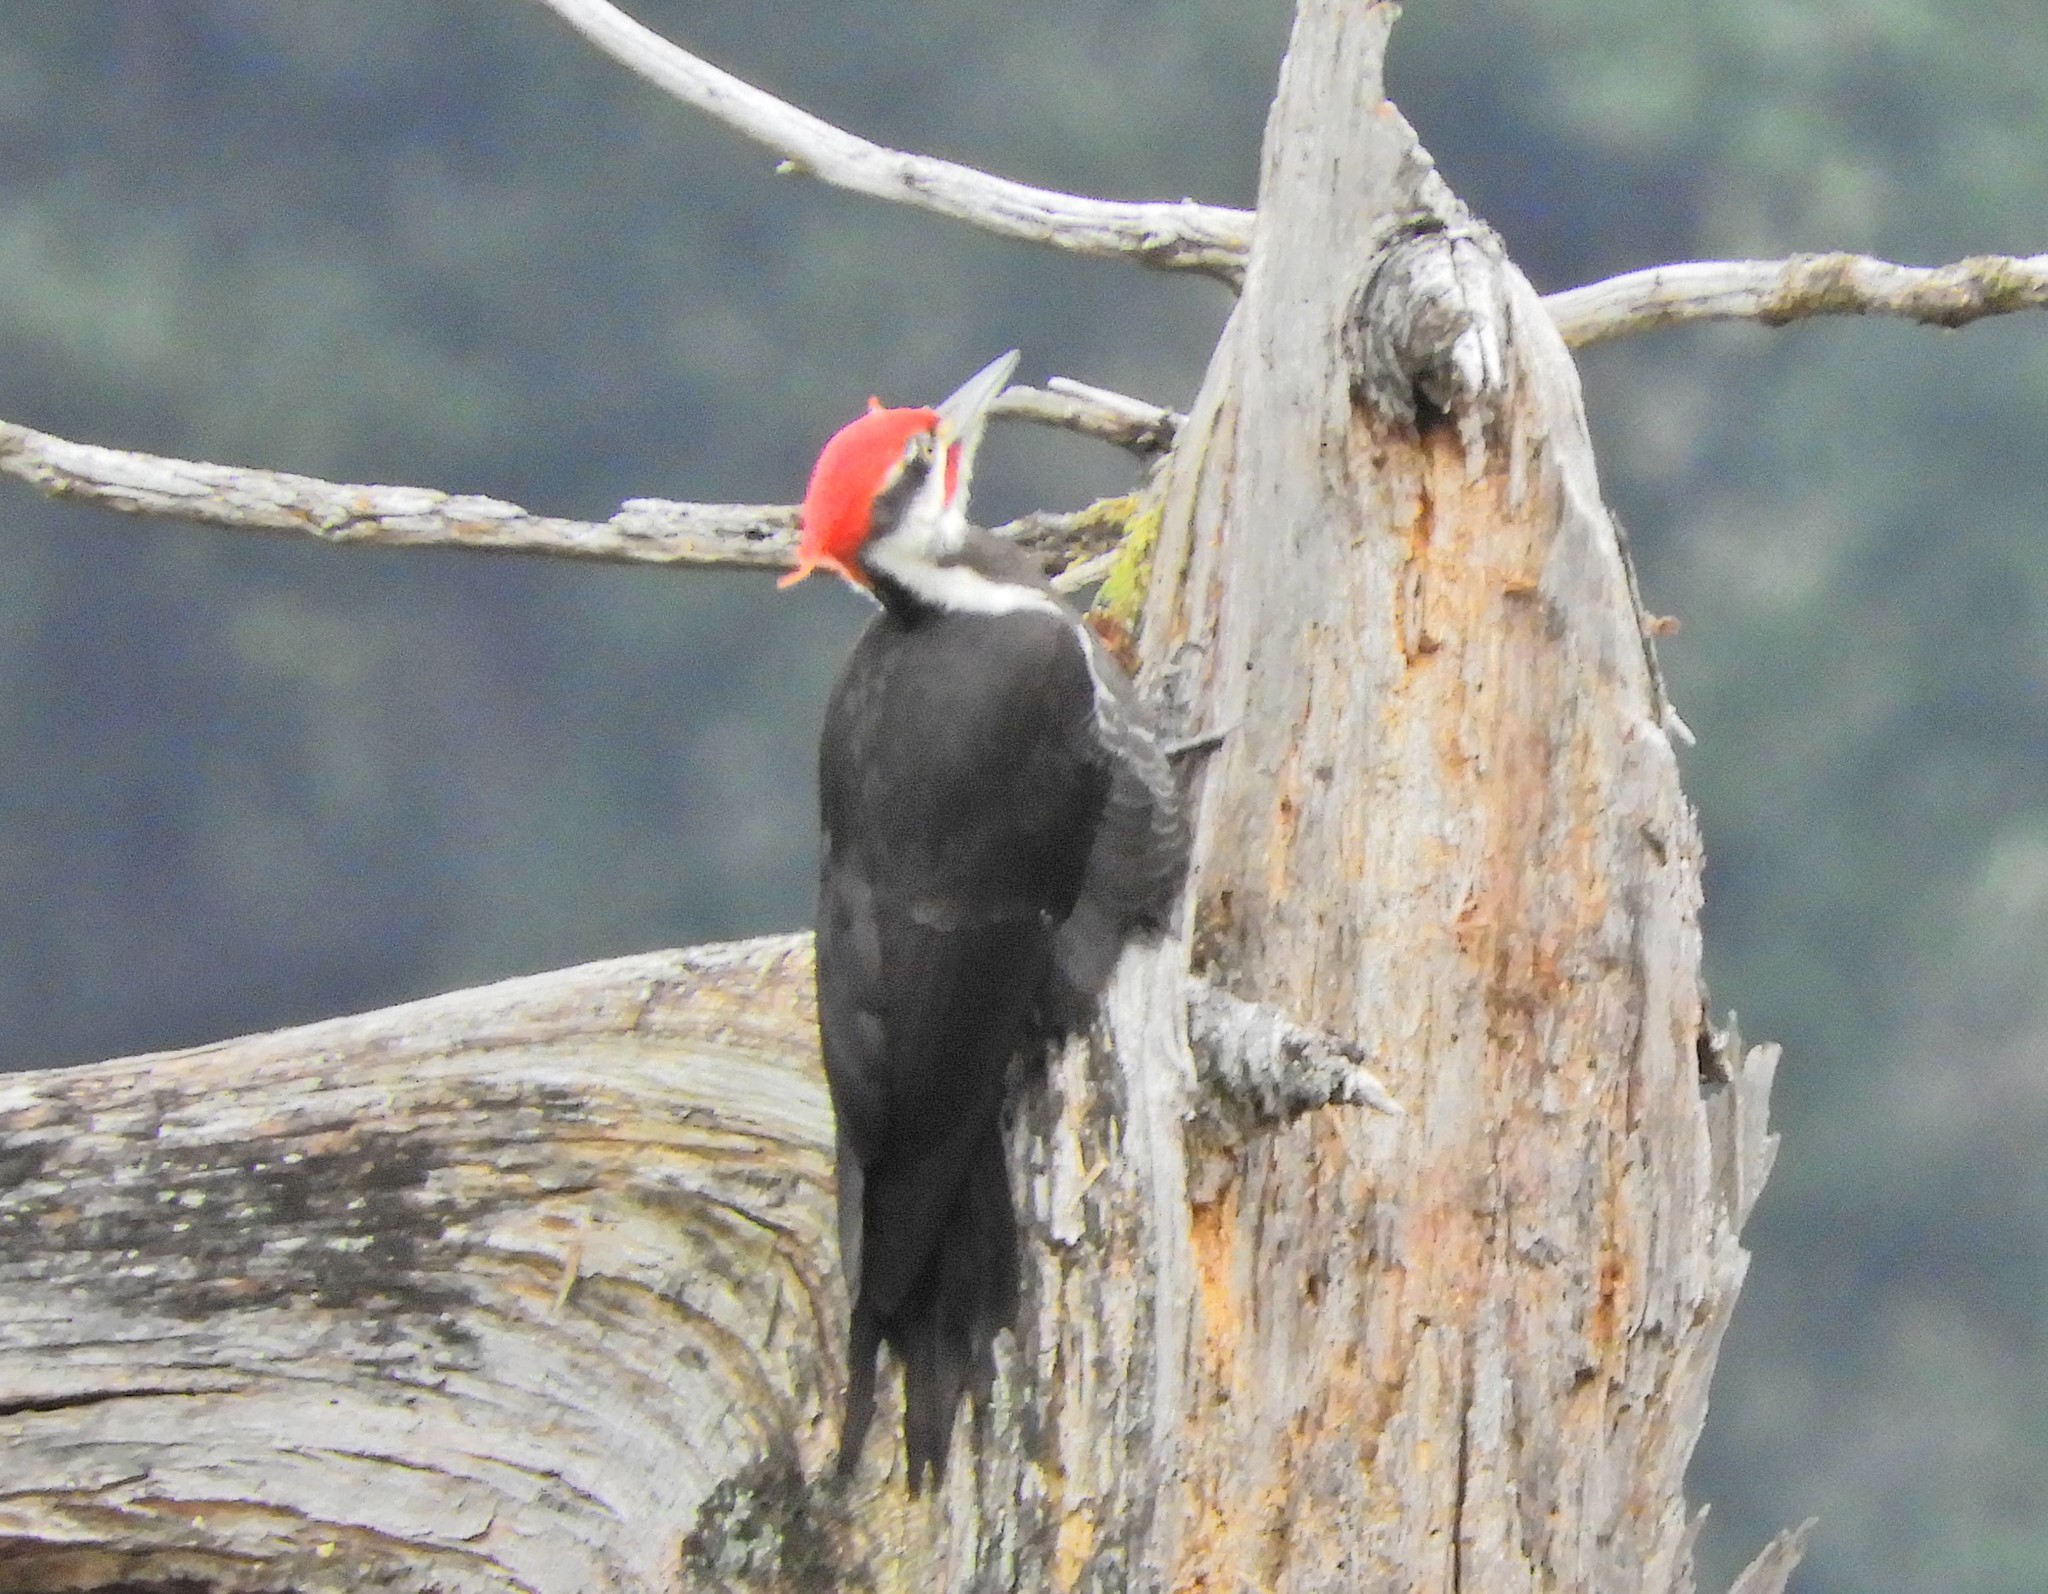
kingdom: Animalia
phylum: Chordata
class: Aves
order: Piciformes
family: Picidae
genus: Dryocopus
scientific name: Dryocopus pileatus
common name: Pileated woodpecker
